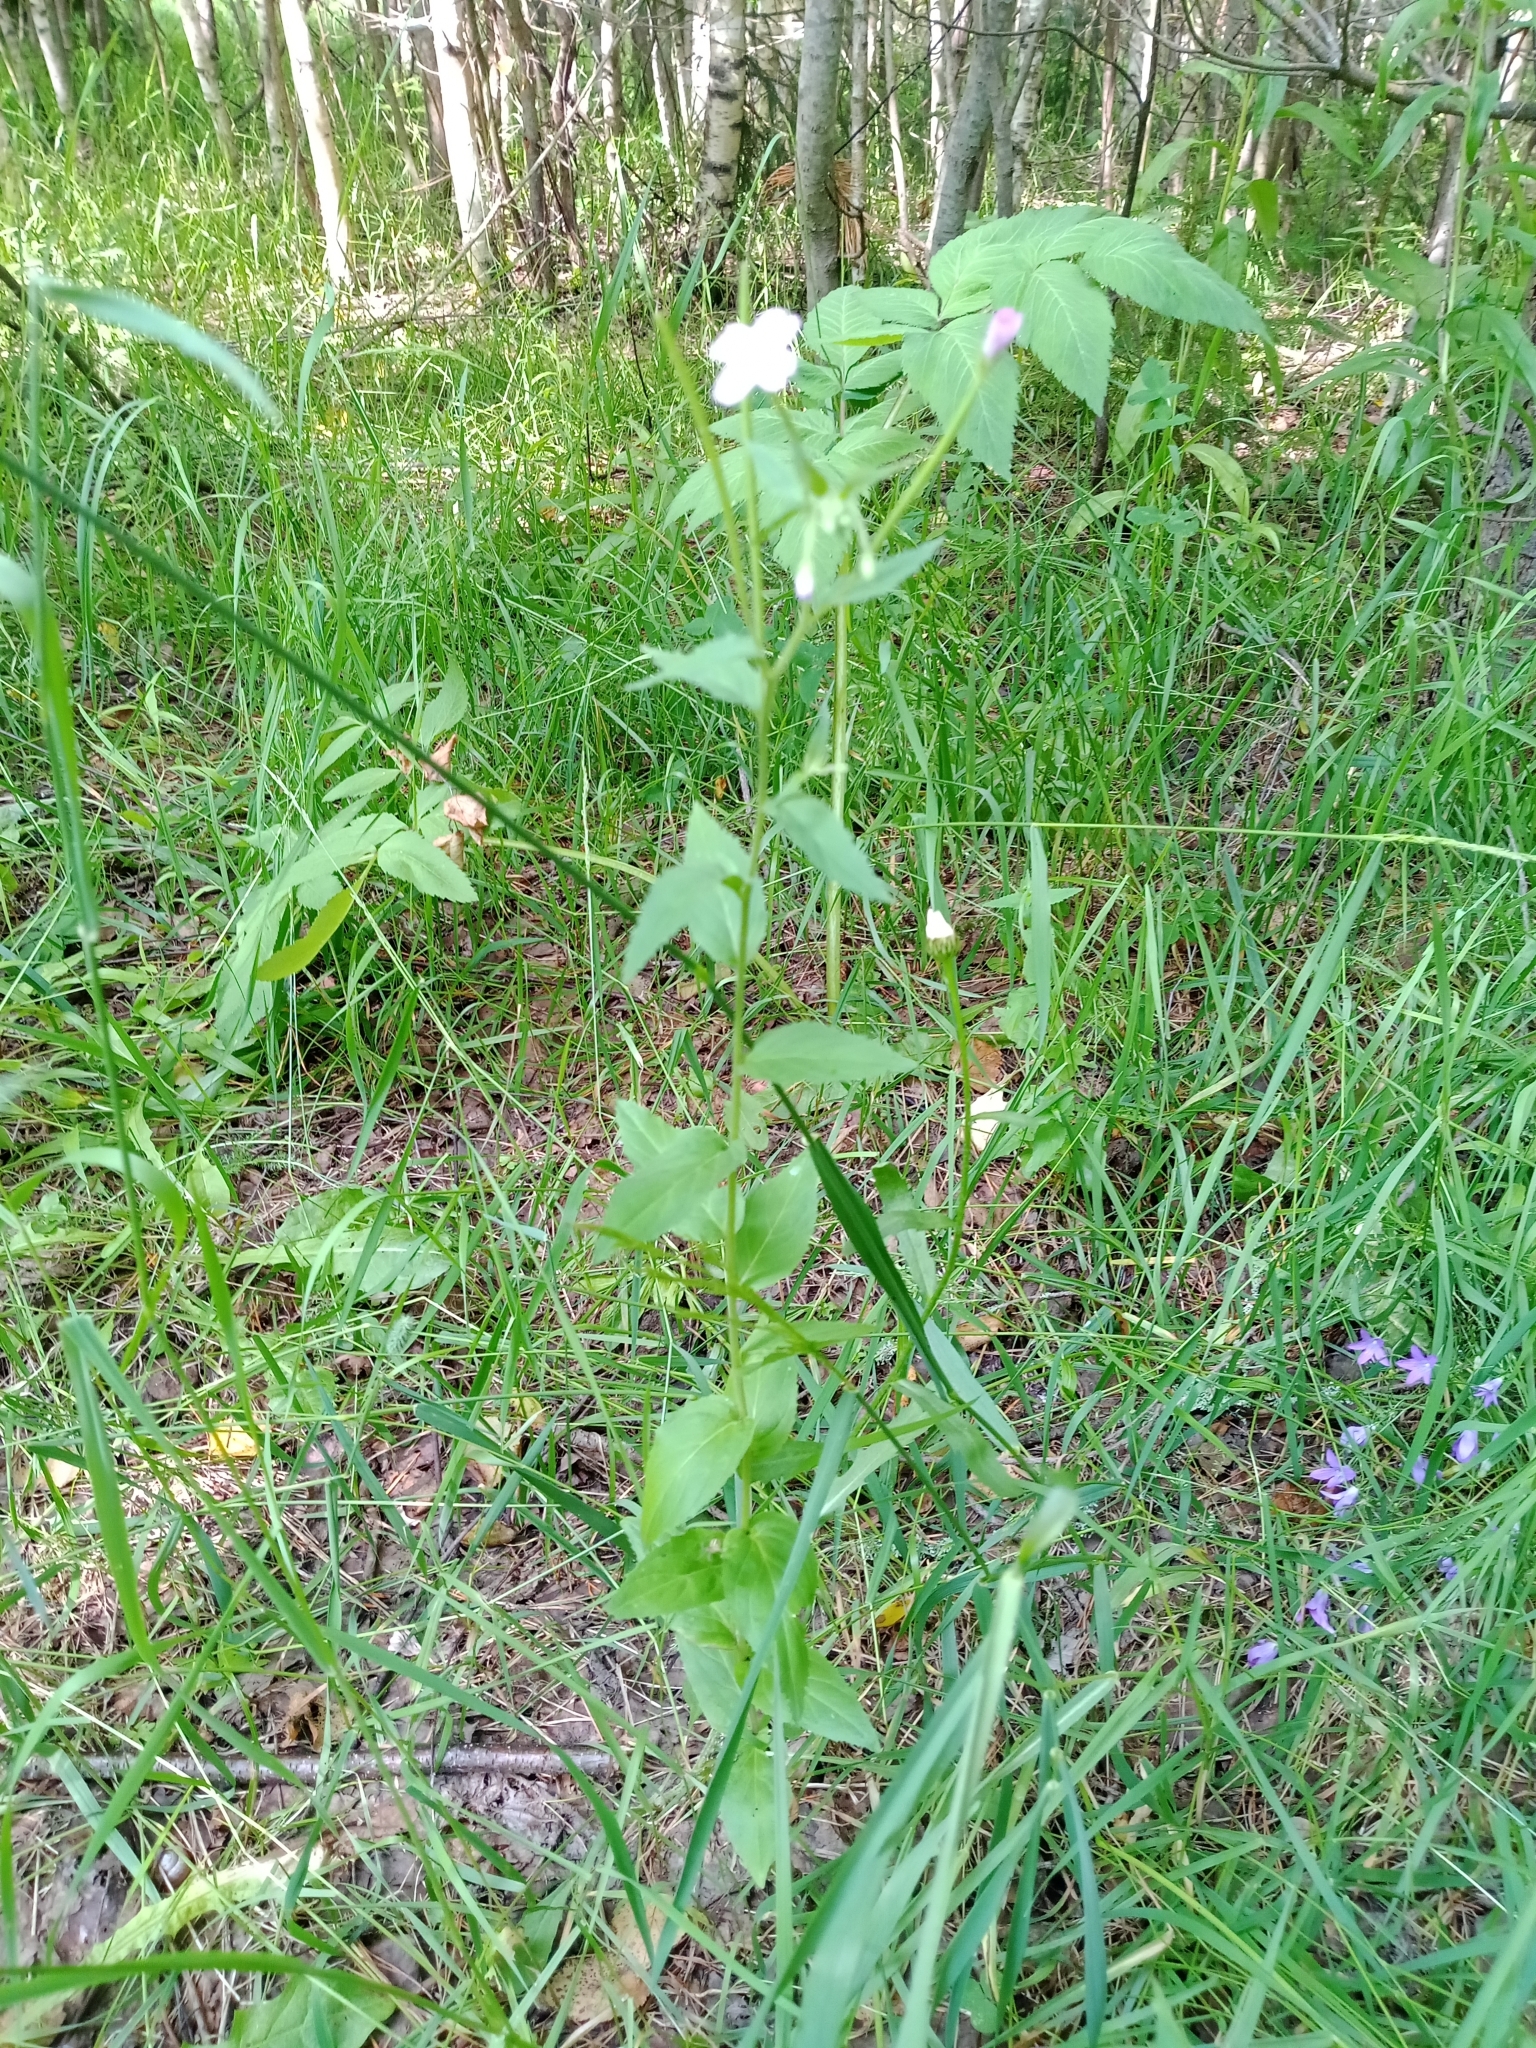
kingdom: Plantae
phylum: Tracheophyta
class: Magnoliopsida
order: Myrtales
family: Onagraceae
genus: Epilobium
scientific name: Epilobium montanum
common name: Broad-leaved willowherb
